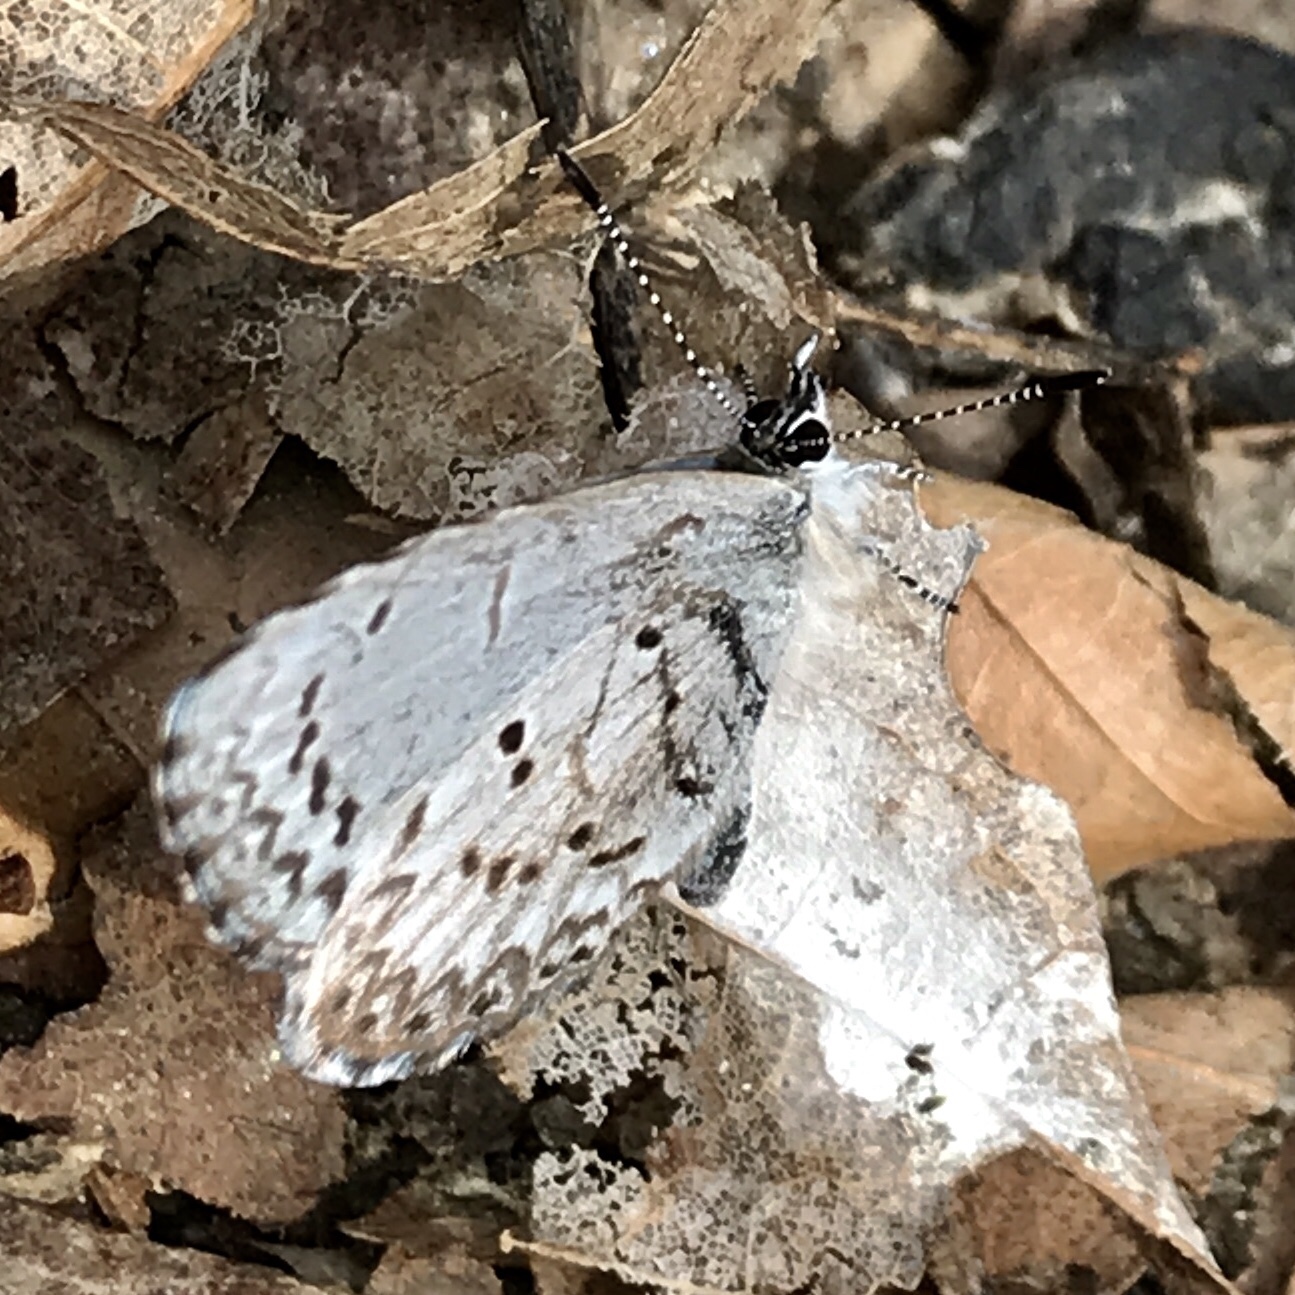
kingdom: Animalia
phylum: Arthropoda
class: Insecta
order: Lepidoptera
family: Lycaenidae
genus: Celastrina
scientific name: Celastrina lucia
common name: Lucia azure
